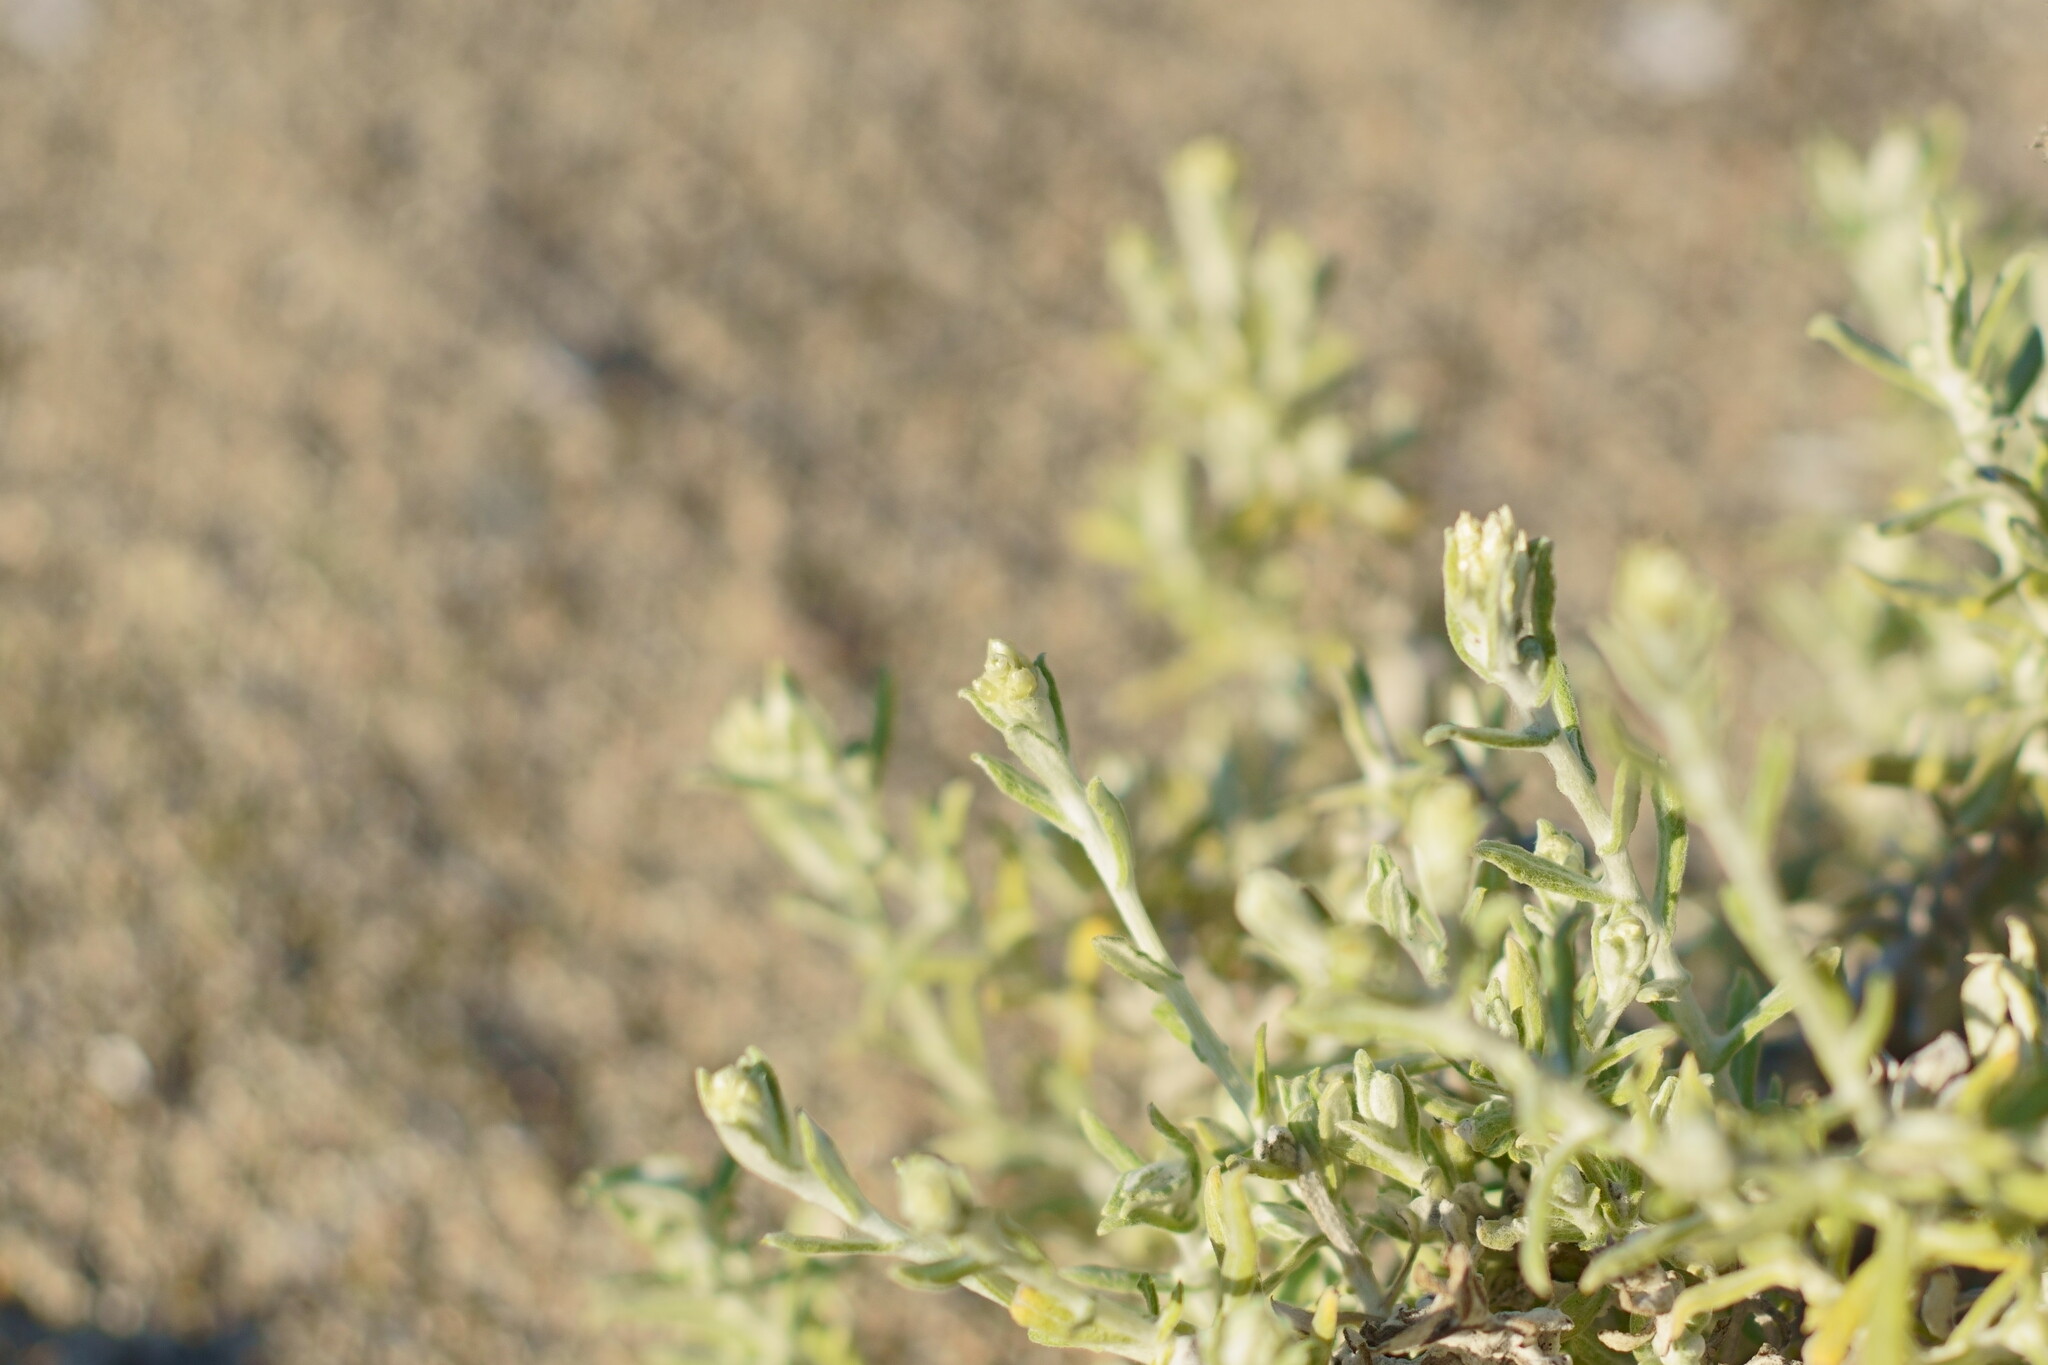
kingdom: Plantae
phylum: Tracheophyta
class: Magnoliopsida
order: Asterales
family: Asteraceae
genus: Pseudognaphalium
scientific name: Pseudognaphalium biolettii
